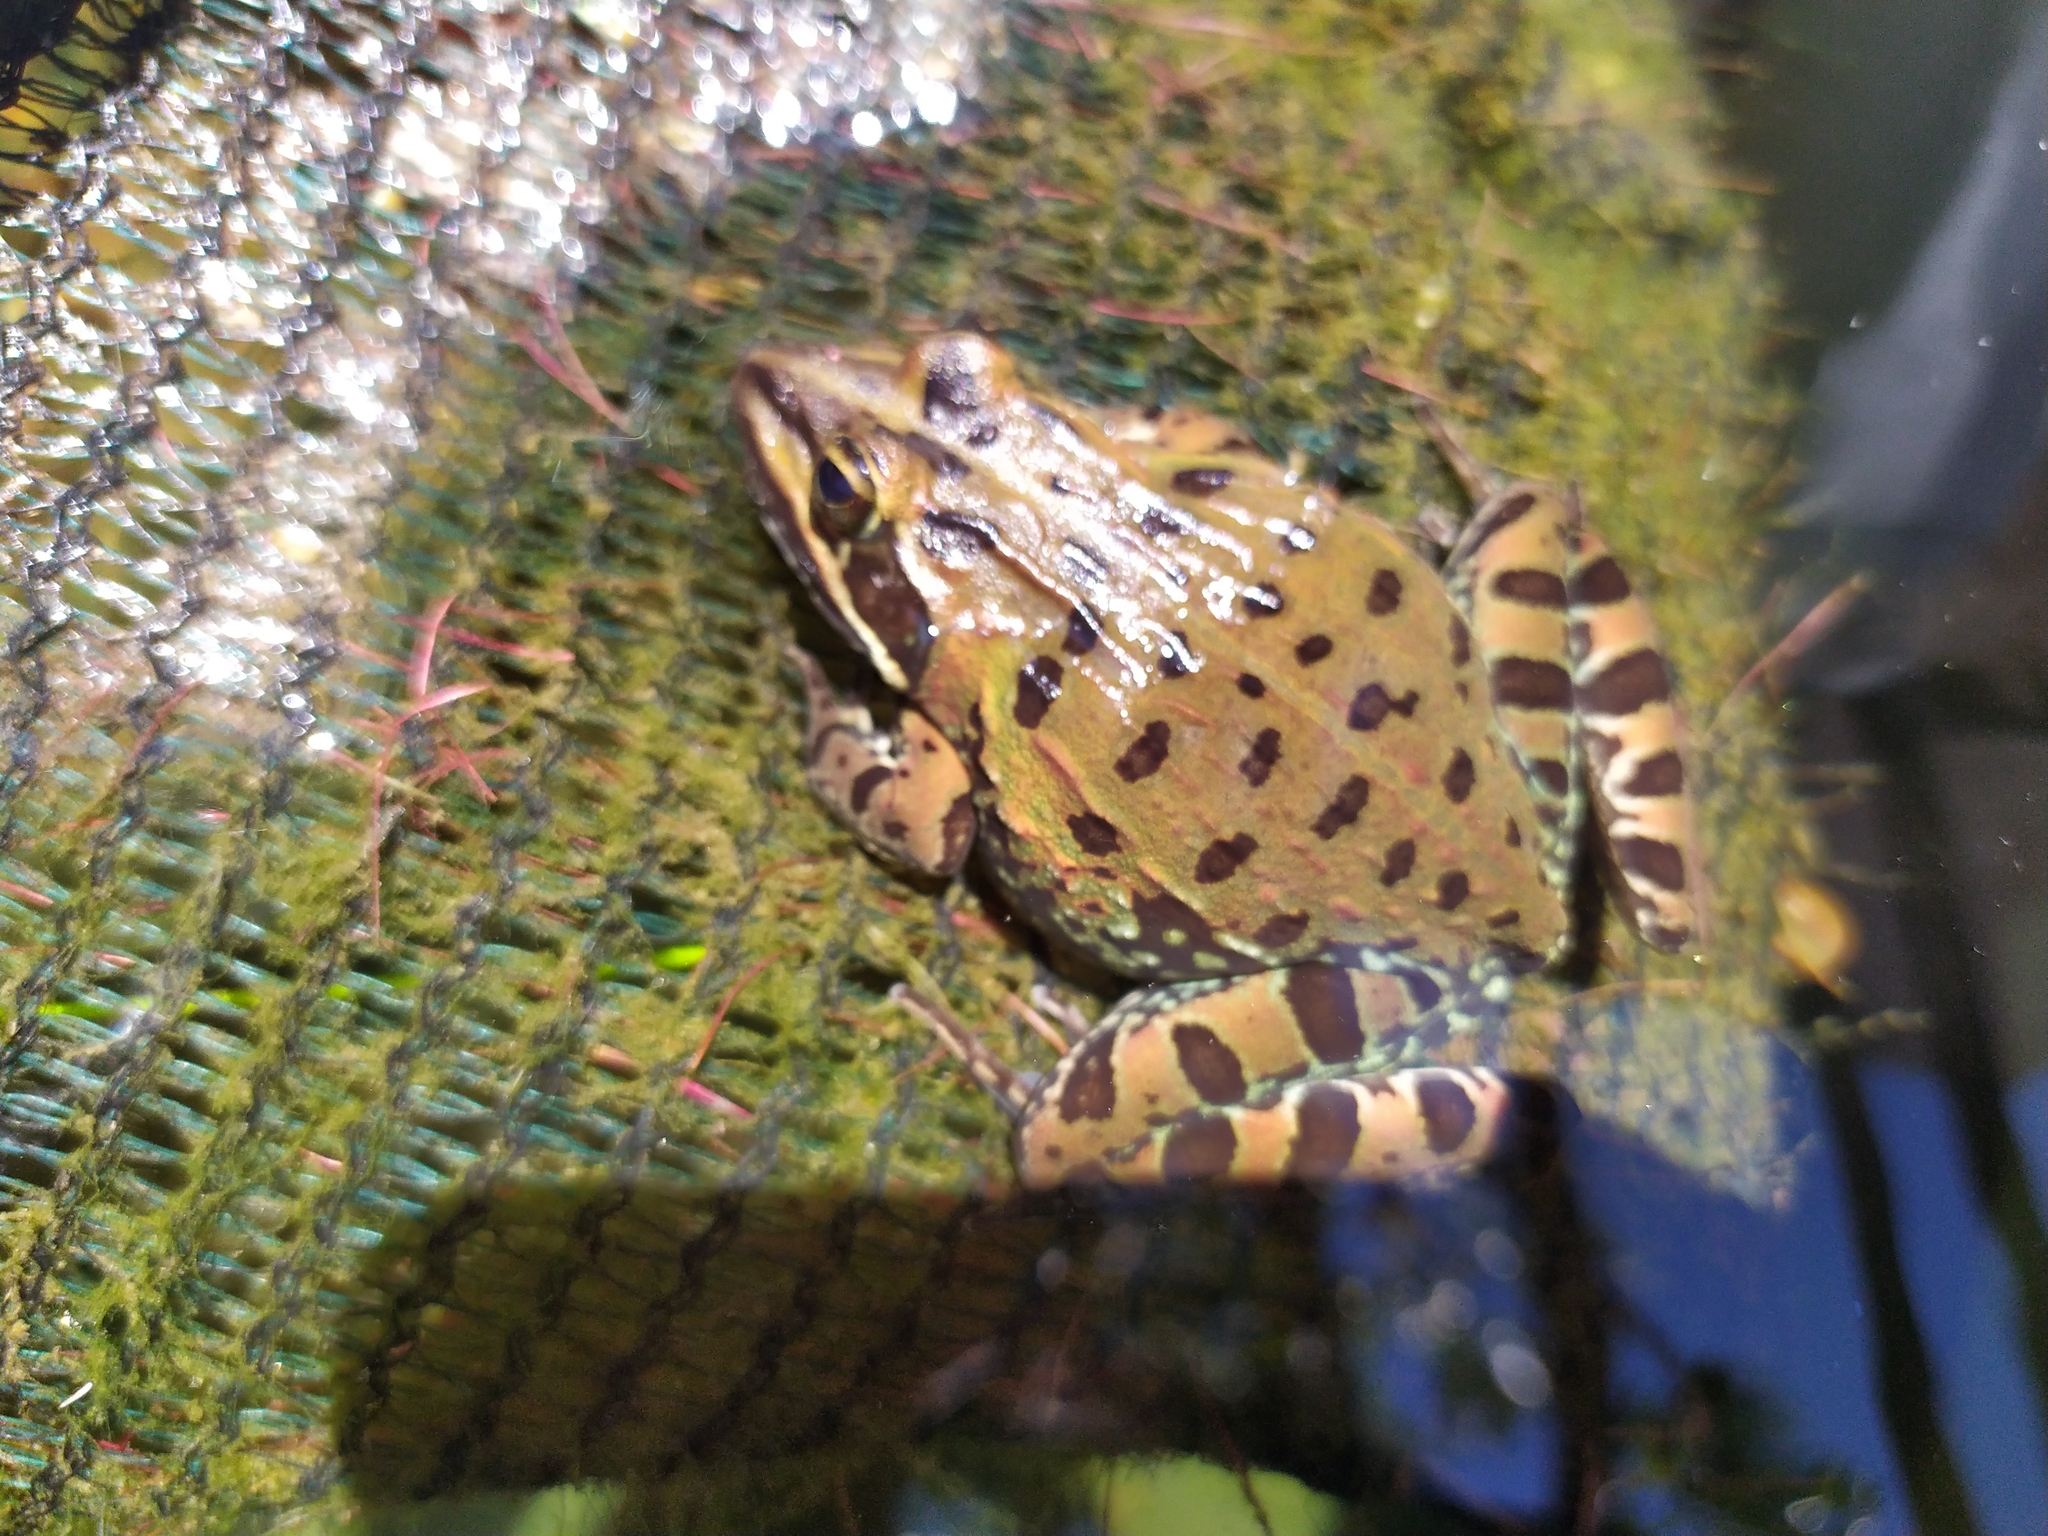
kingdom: Animalia
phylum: Chordata
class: Amphibia
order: Anura
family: Pyxicephalidae
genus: Amietia
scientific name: Amietia delalandii
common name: Delalande's river frog
